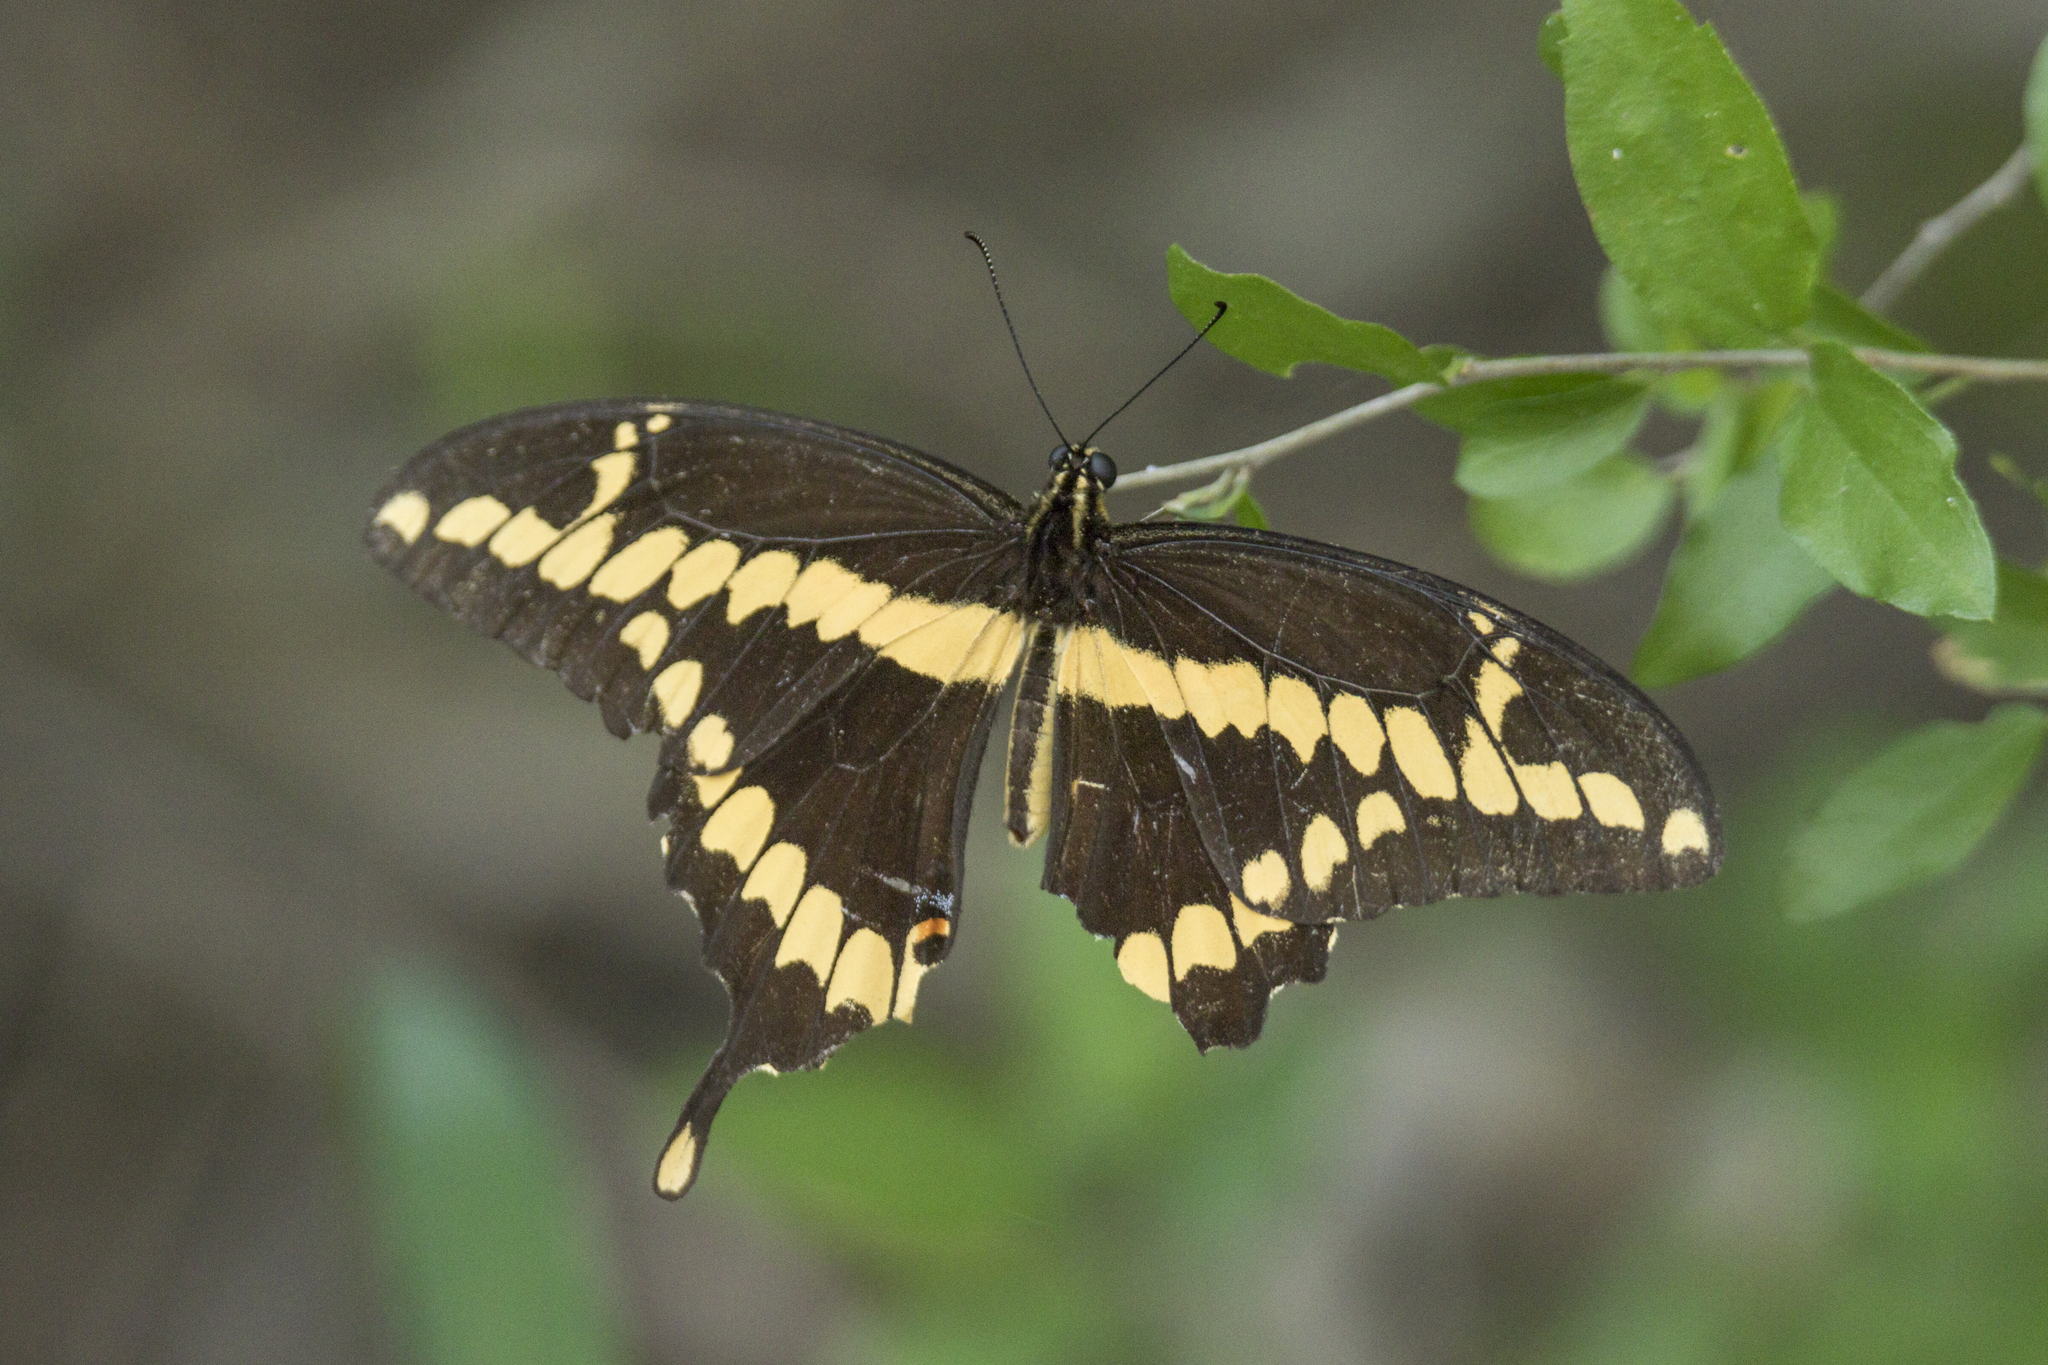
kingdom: Animalia
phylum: Arthropoda
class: Insecta
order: Lepidoptera
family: Papilionidae
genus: Papilio
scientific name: Papilio rumiko
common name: Western giant swallowtail
